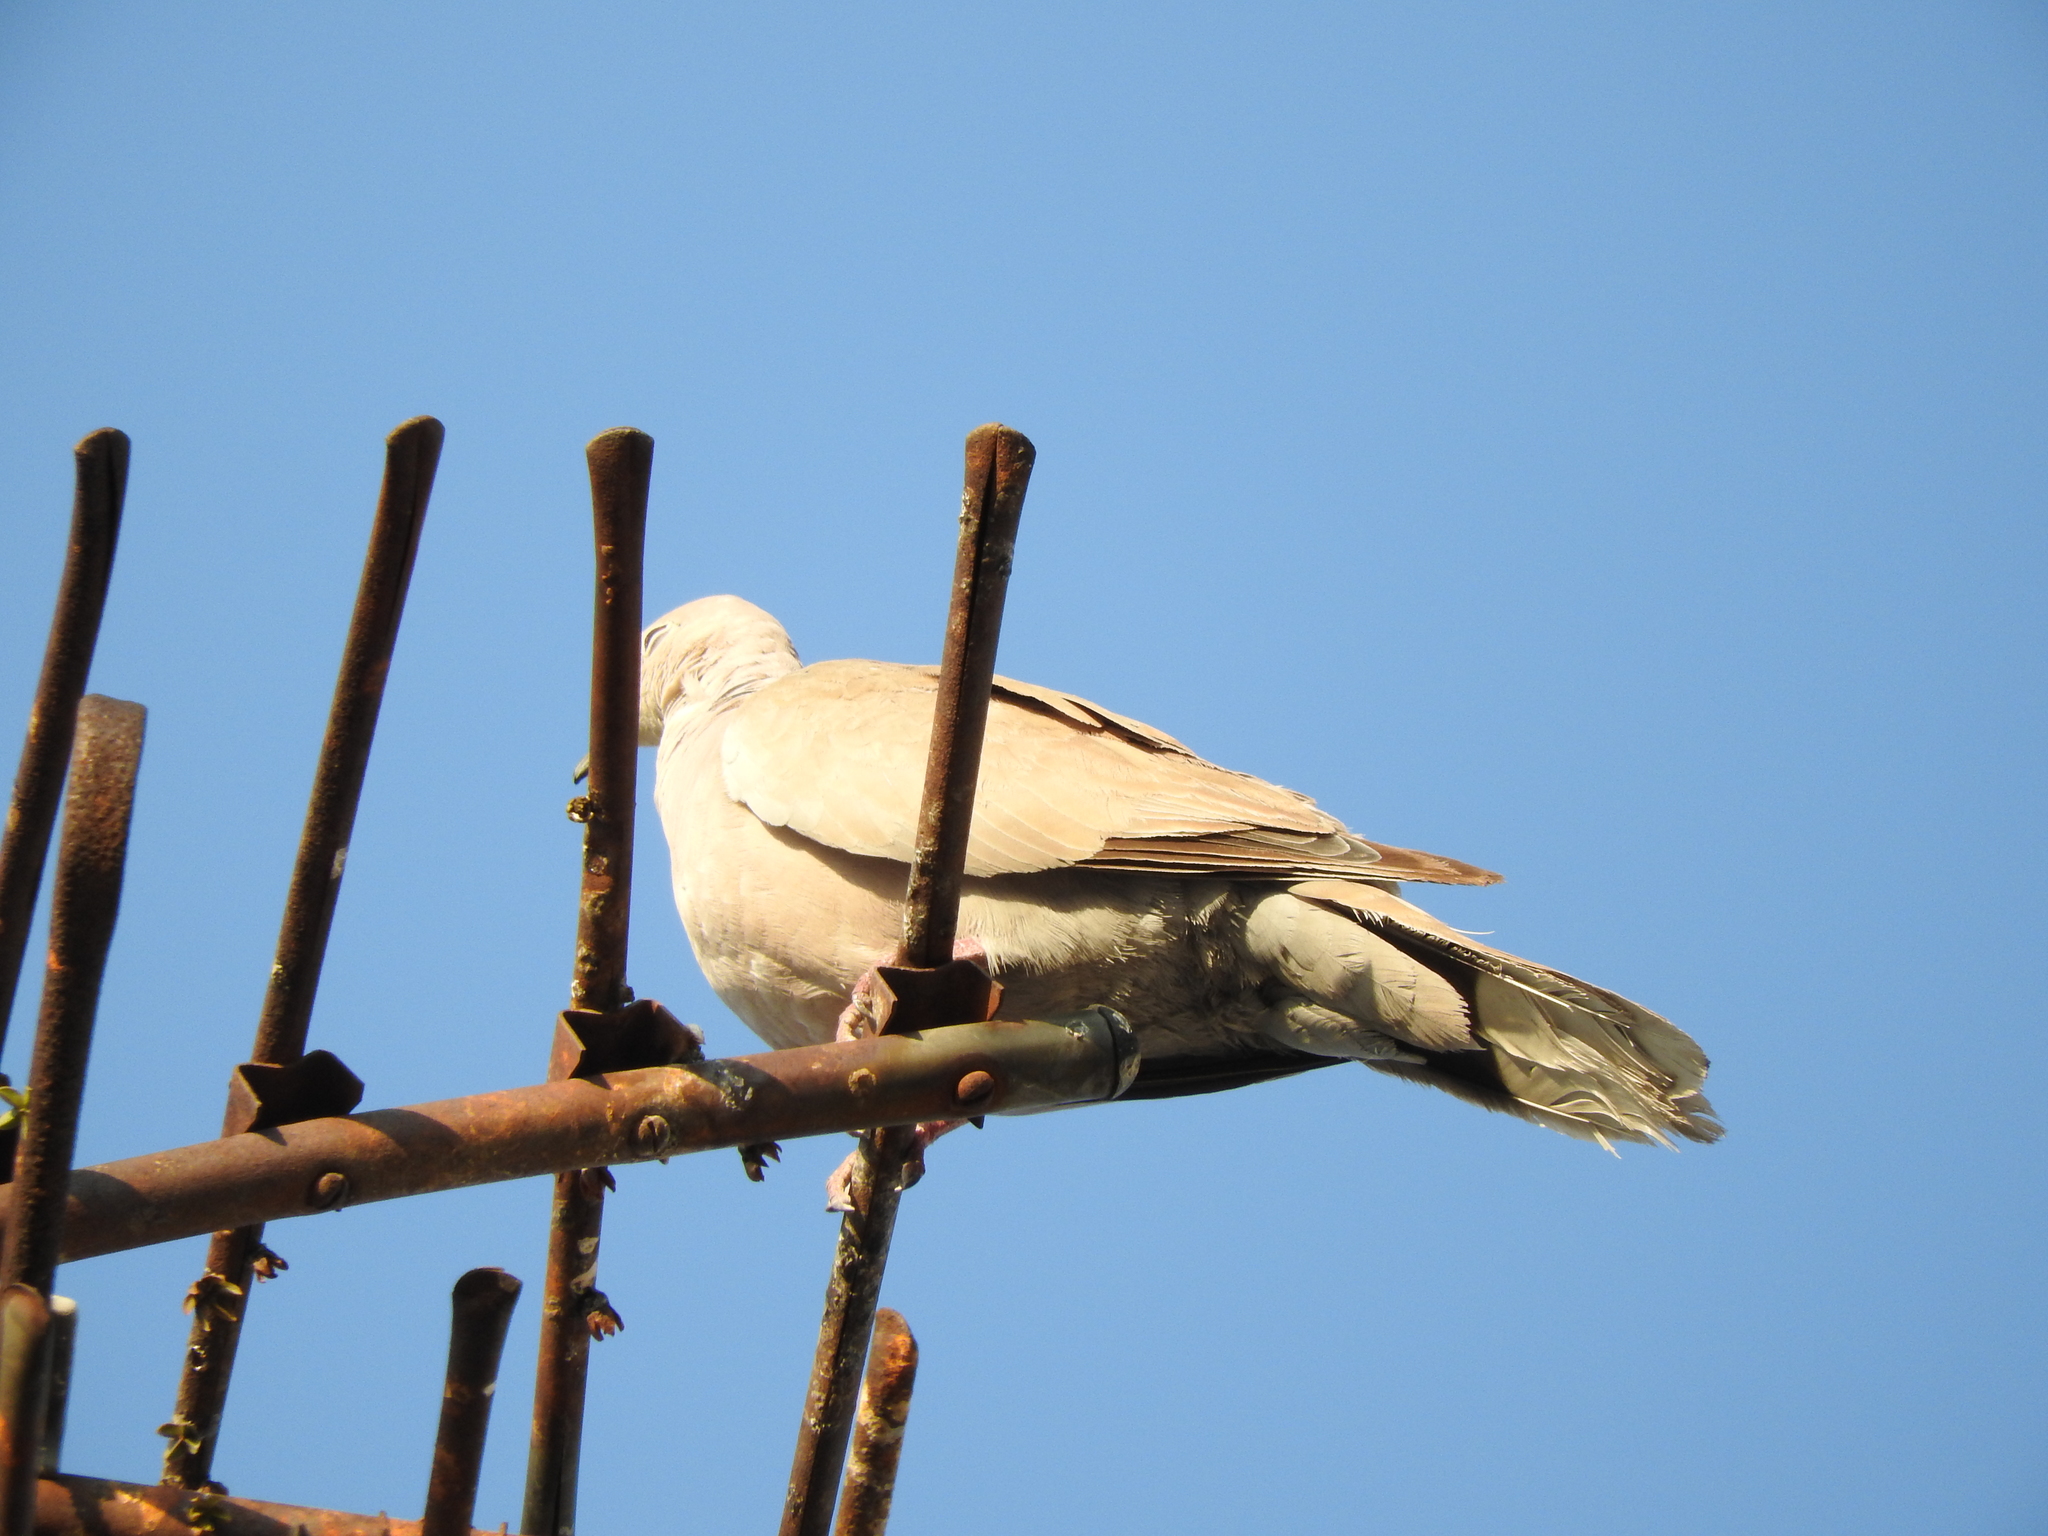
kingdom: Animalia
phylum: Chordata
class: Aves
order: Columbiformes
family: Columbidae
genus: Streptopelia
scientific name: Streptopelia decaocto
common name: Eurasian collared dove
